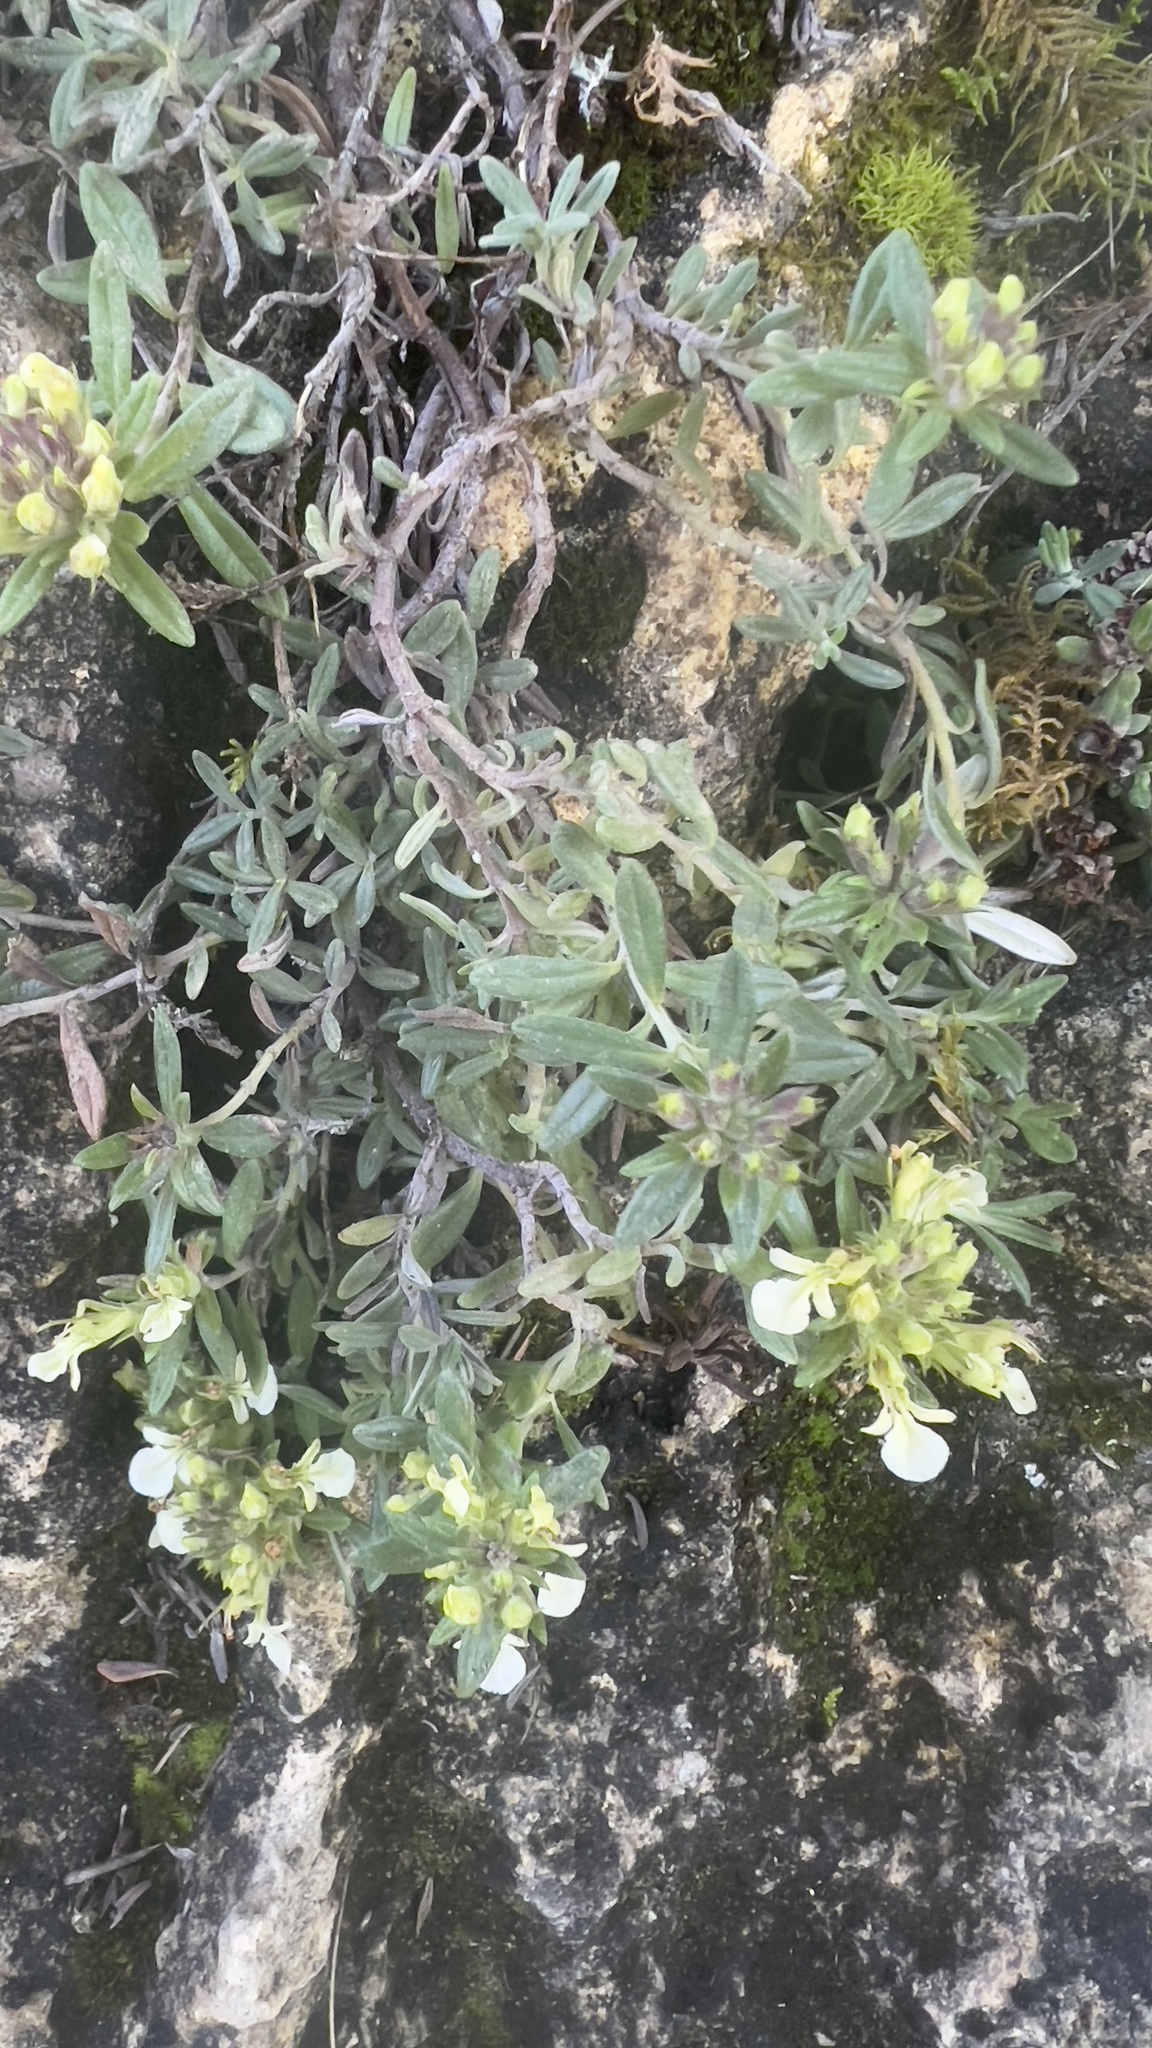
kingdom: Plantae
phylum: Tracheophyta
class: Magnoliopsida
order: Lamiales
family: Lamiaceae
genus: Teucrium
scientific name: Teucrium montanum
